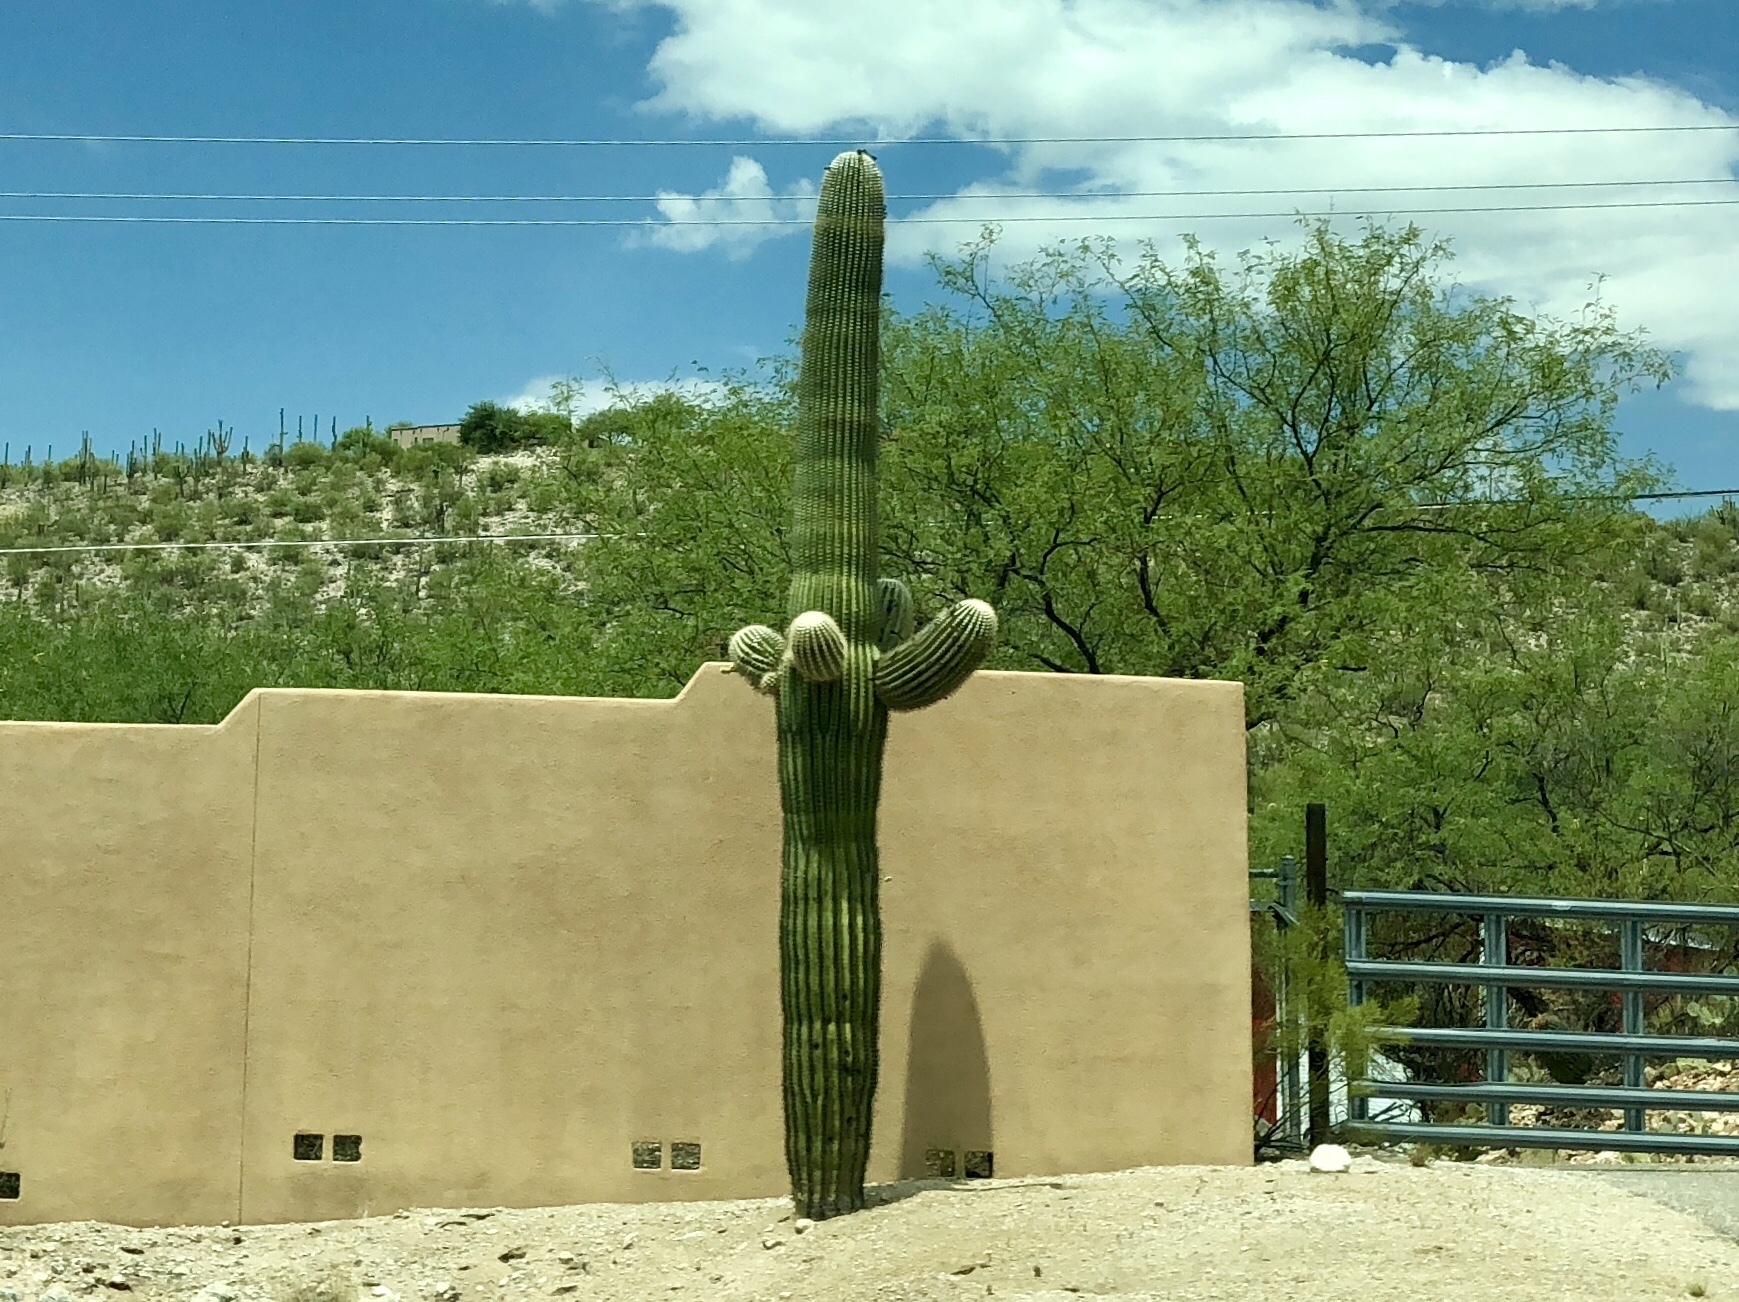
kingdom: Plantae
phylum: Tracheophyta
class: Magnoliopsida
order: Caryophyllales
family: Cactaceae
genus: Carnegiea
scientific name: Carnegiea gigantea
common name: Saguaro
